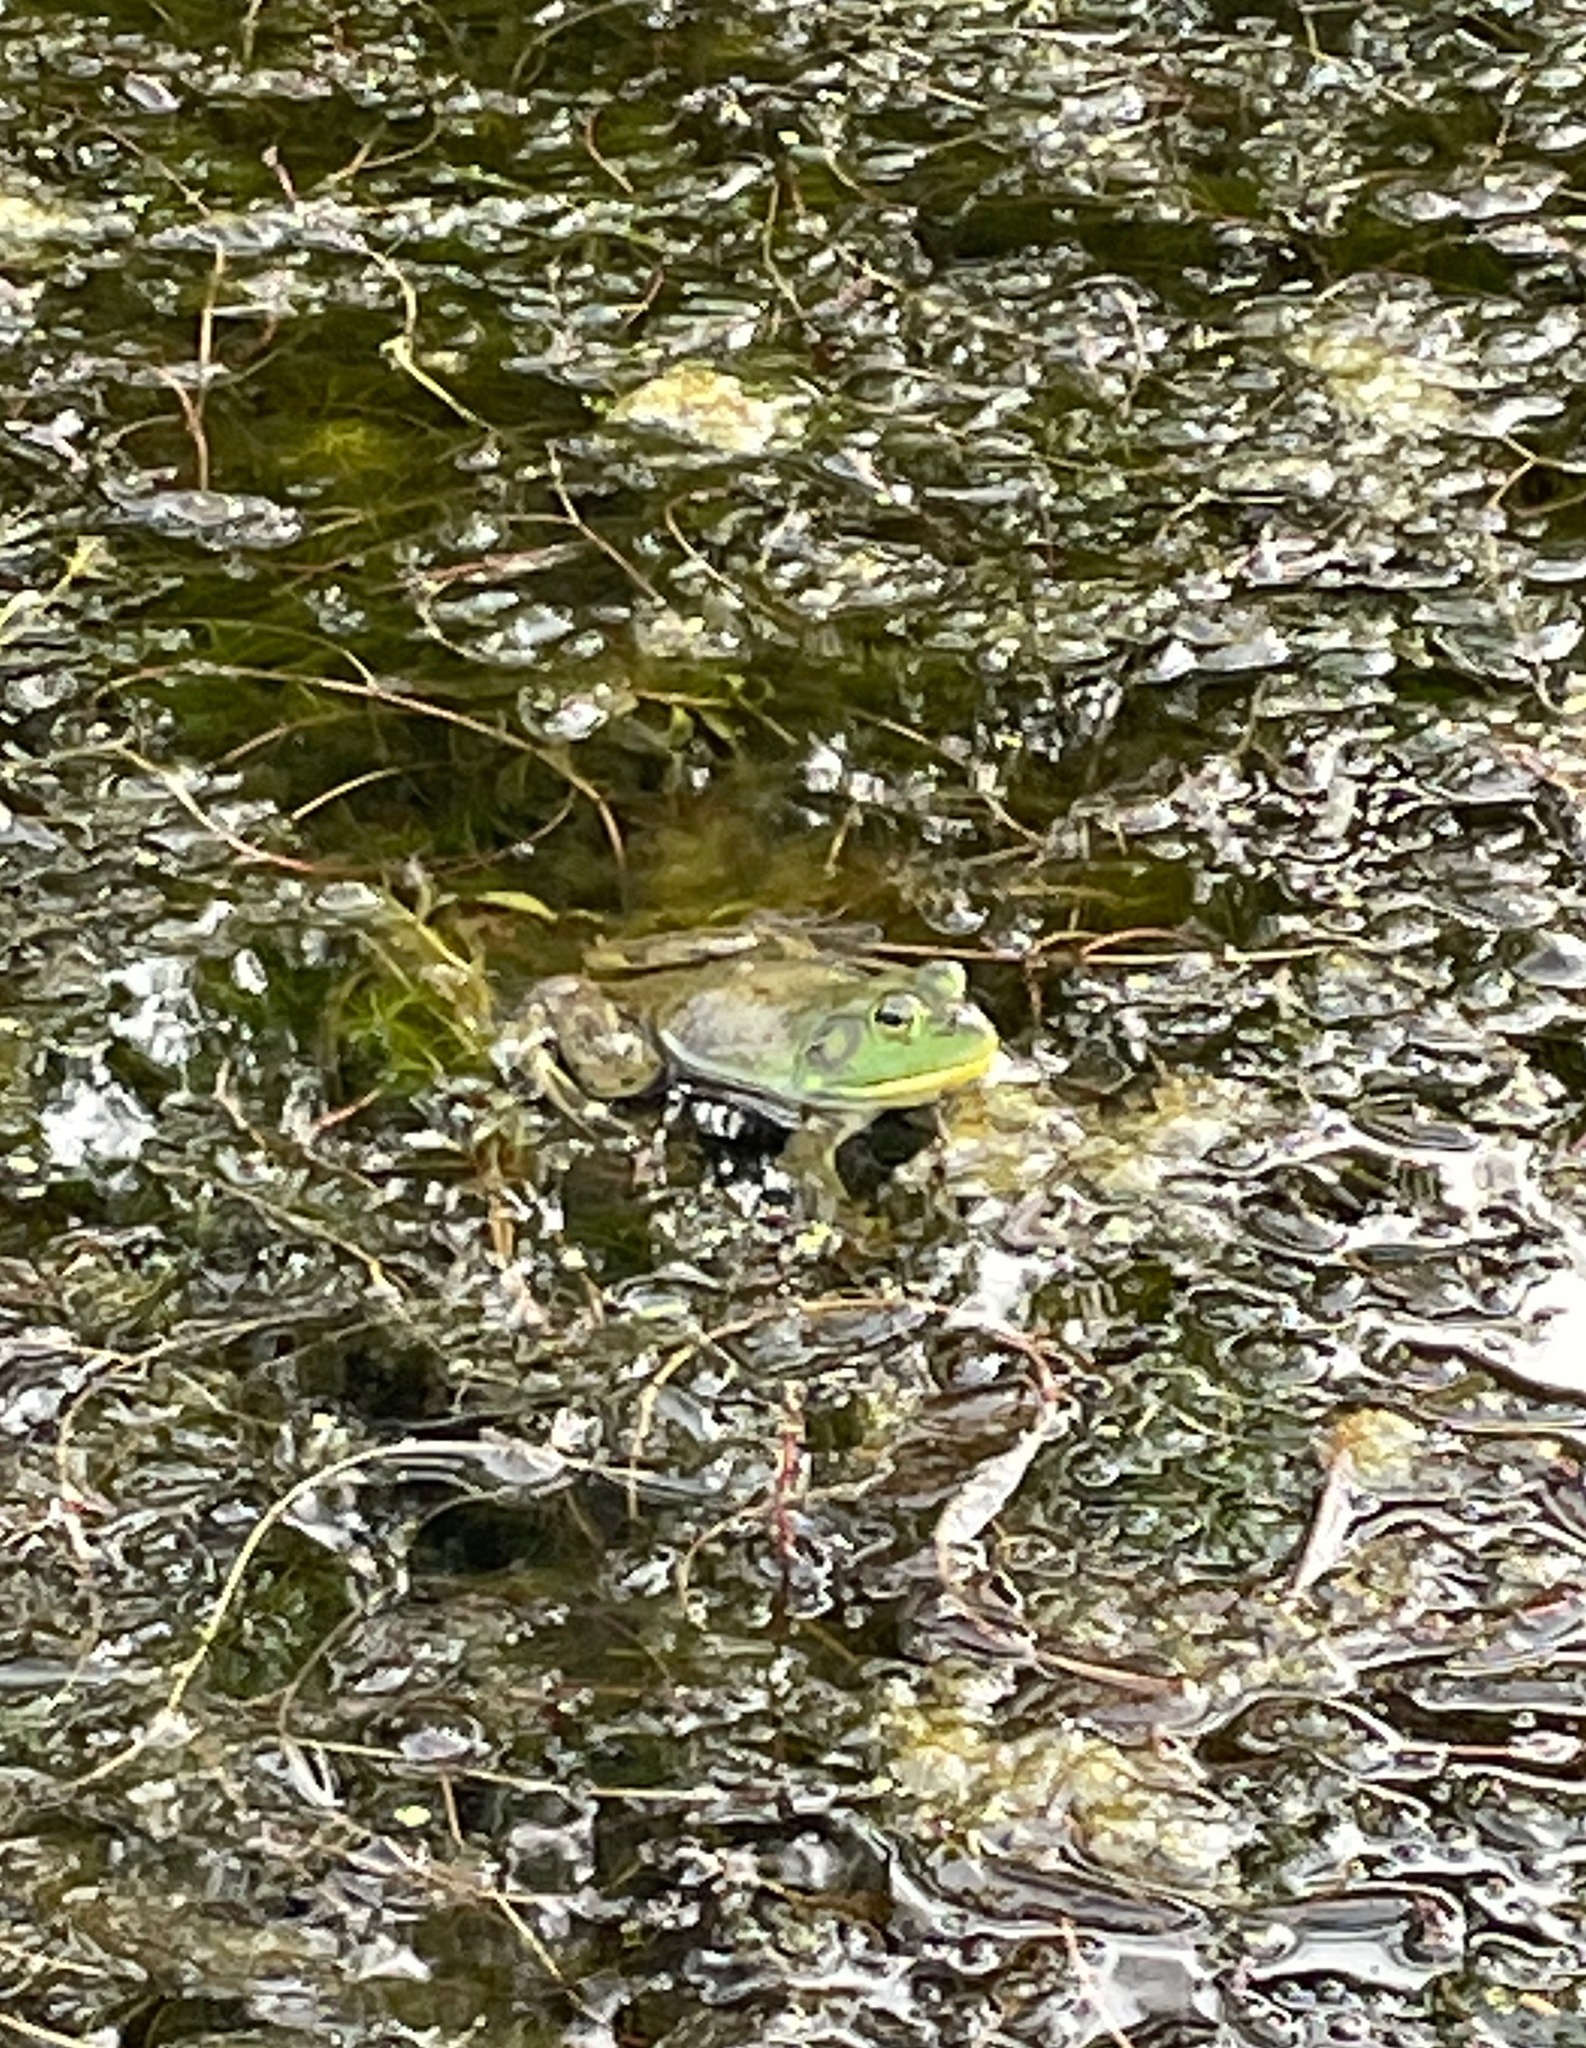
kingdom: Animalia
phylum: Chordata
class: Amphibia
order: Anura
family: Ranidae
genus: Lithobates
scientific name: Lithobates catesbeianus
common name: American bullfrog
